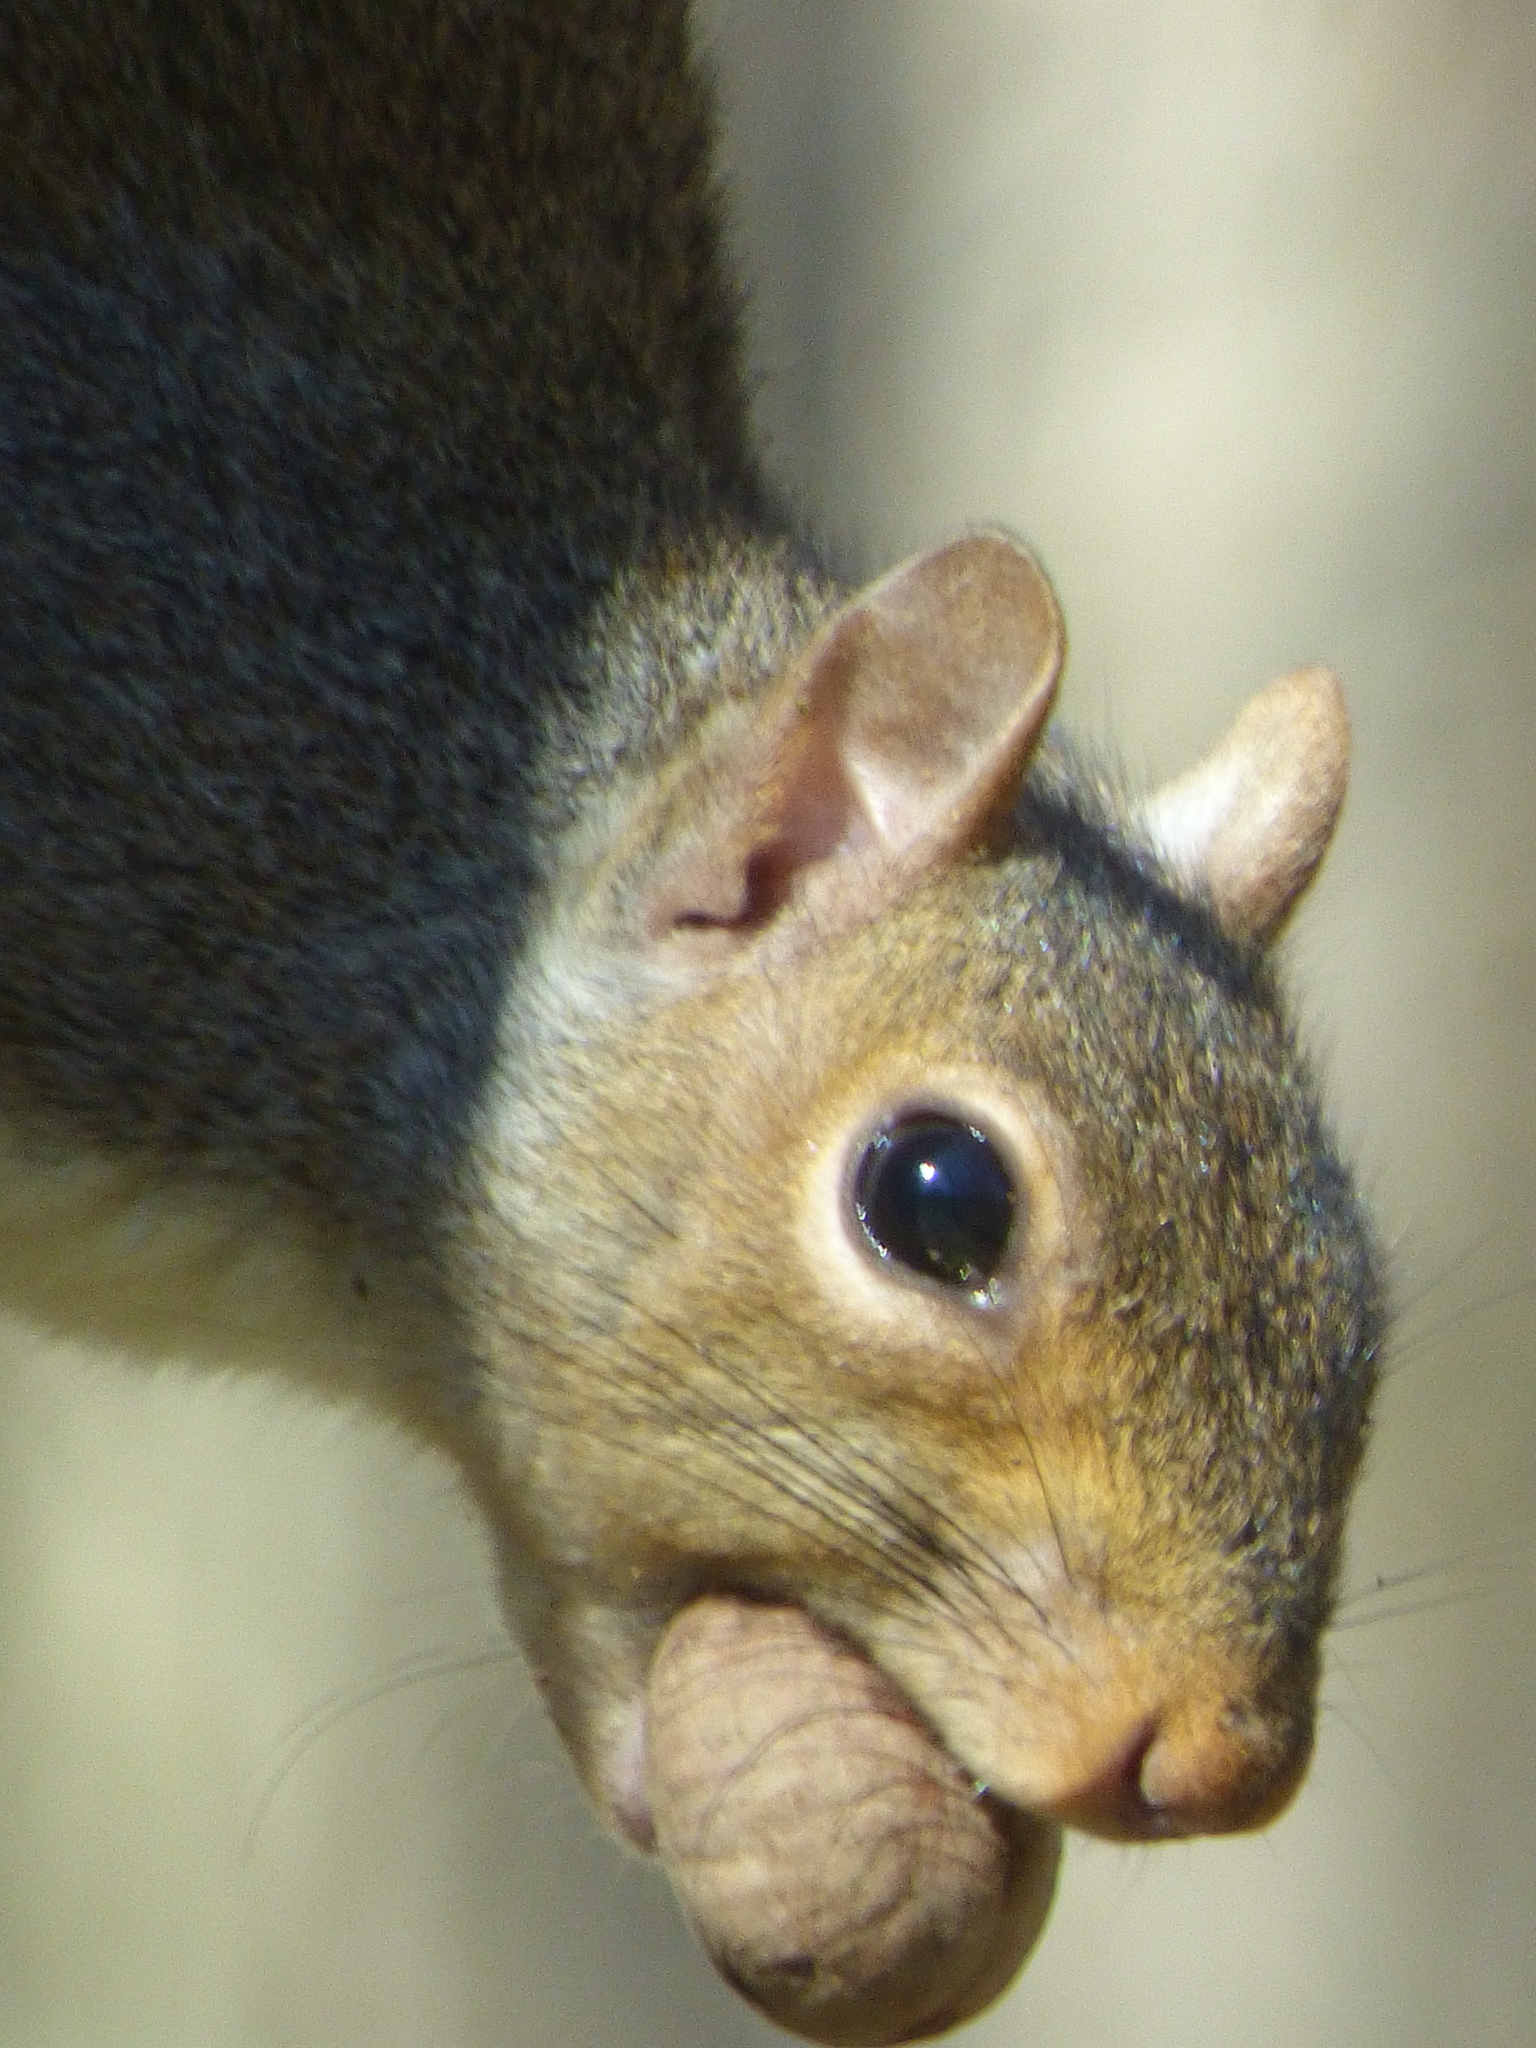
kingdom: Animalia
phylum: Chordata
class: Mammalia
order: Rodentia
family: Sciuridae
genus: Sciurus
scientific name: Sciurus carolinensis
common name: Eastern gray squirrel
